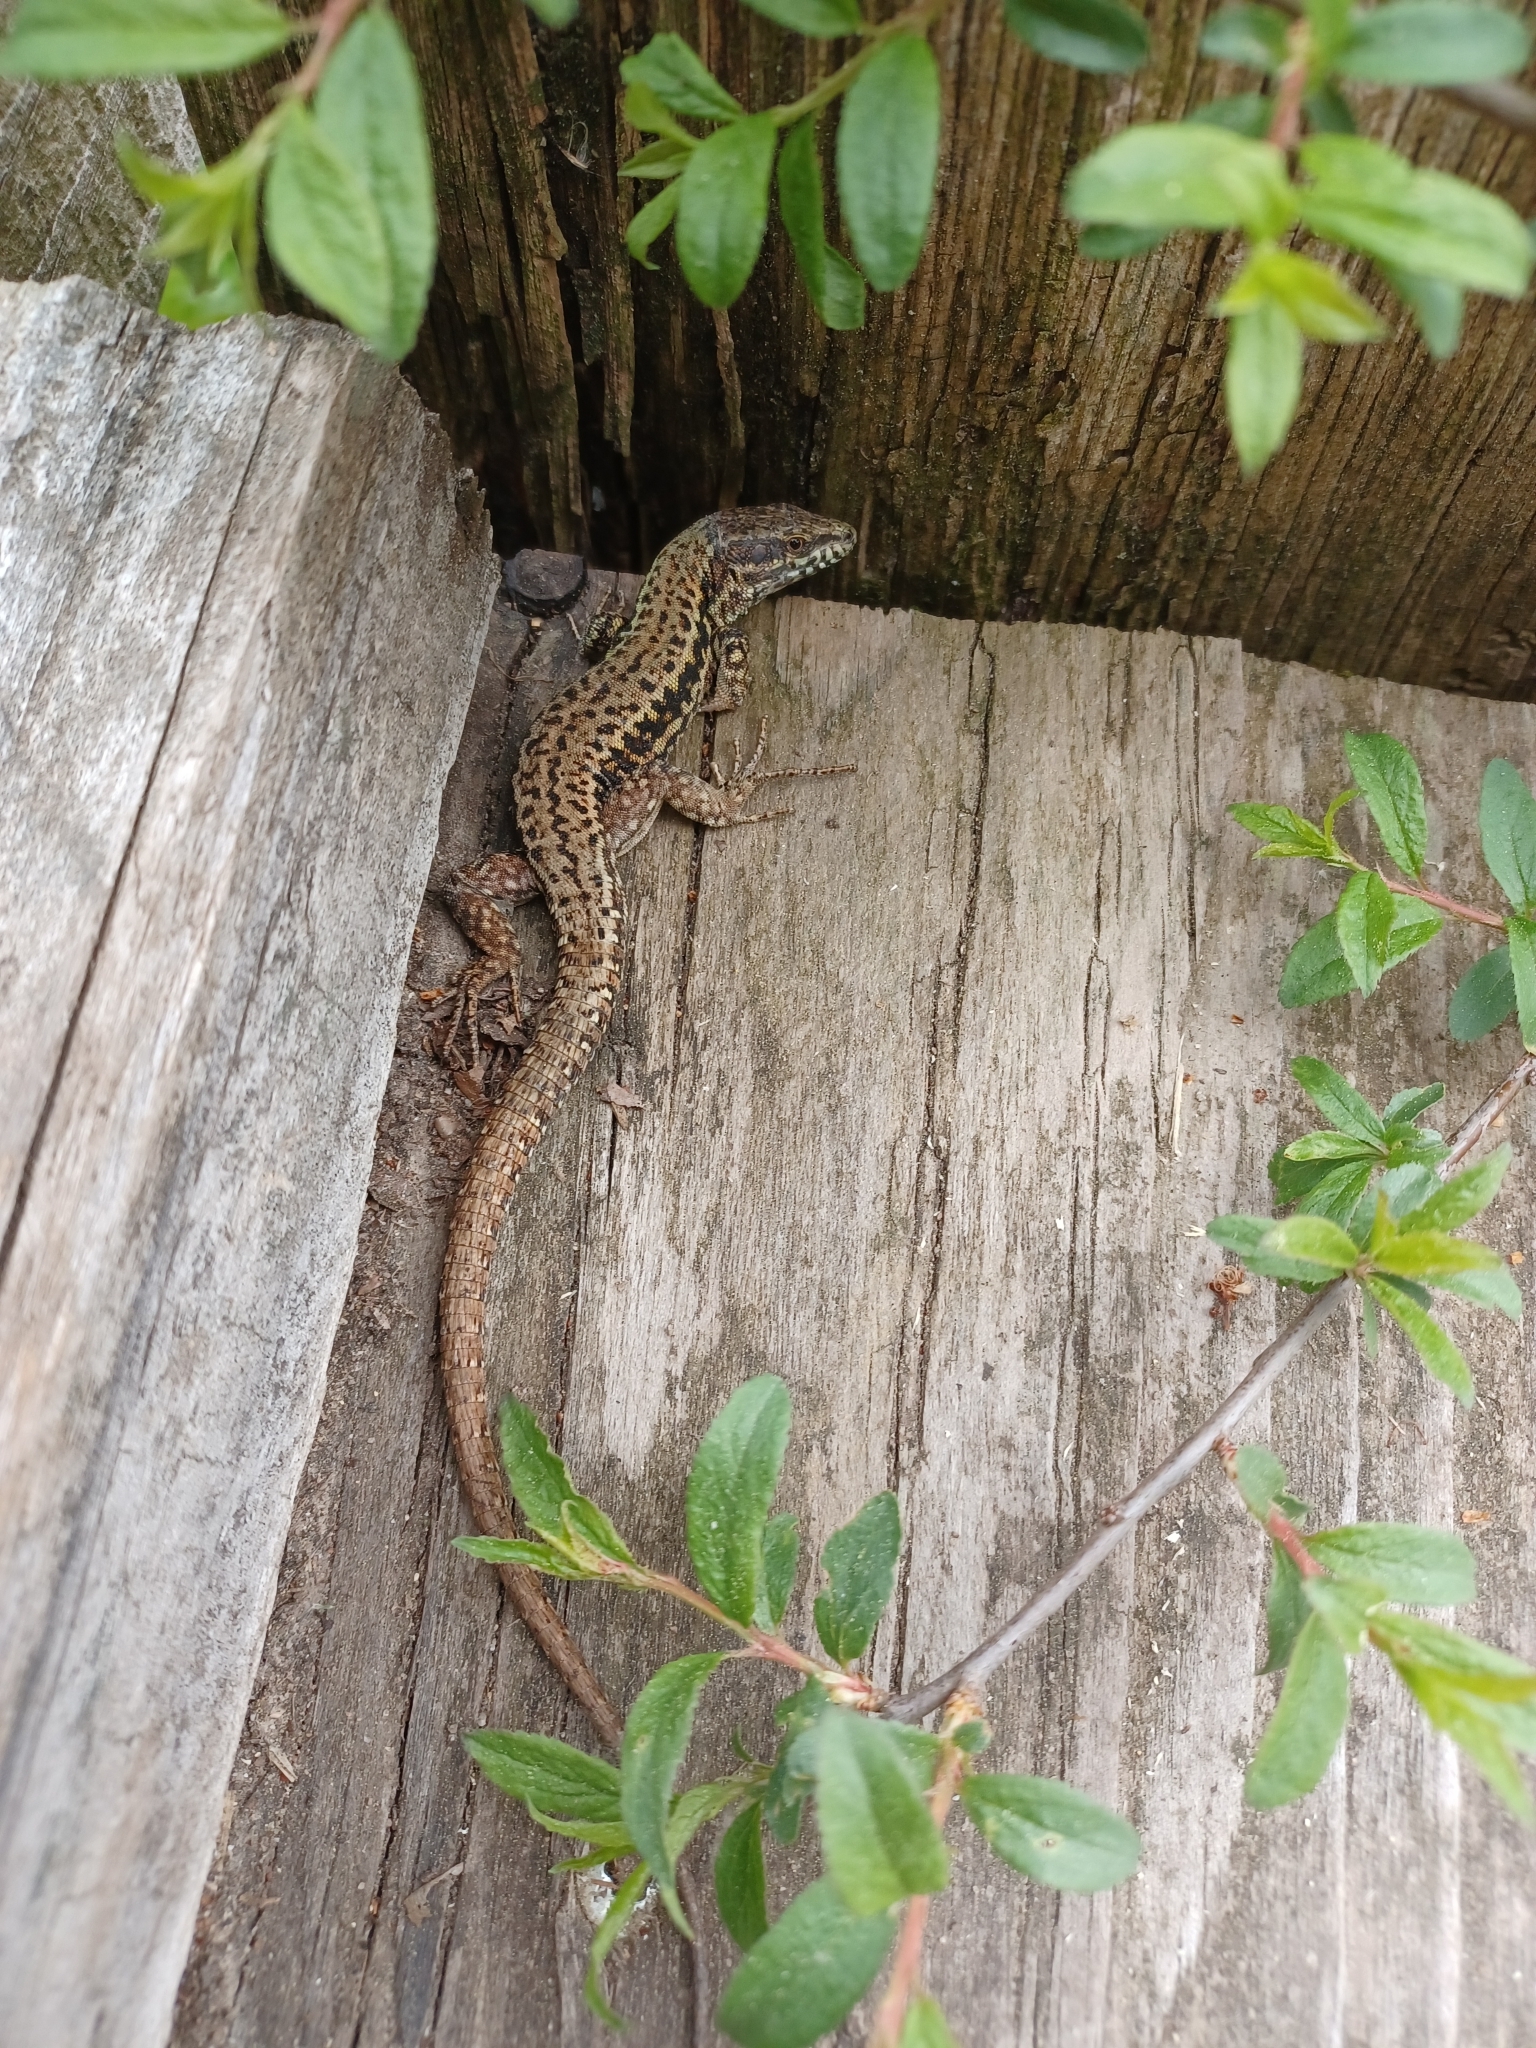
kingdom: Animalia
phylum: Chordata
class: Squamata
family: Lacertidae
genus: Podarcis
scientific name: Podarcis muralis
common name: Common wall lizard
